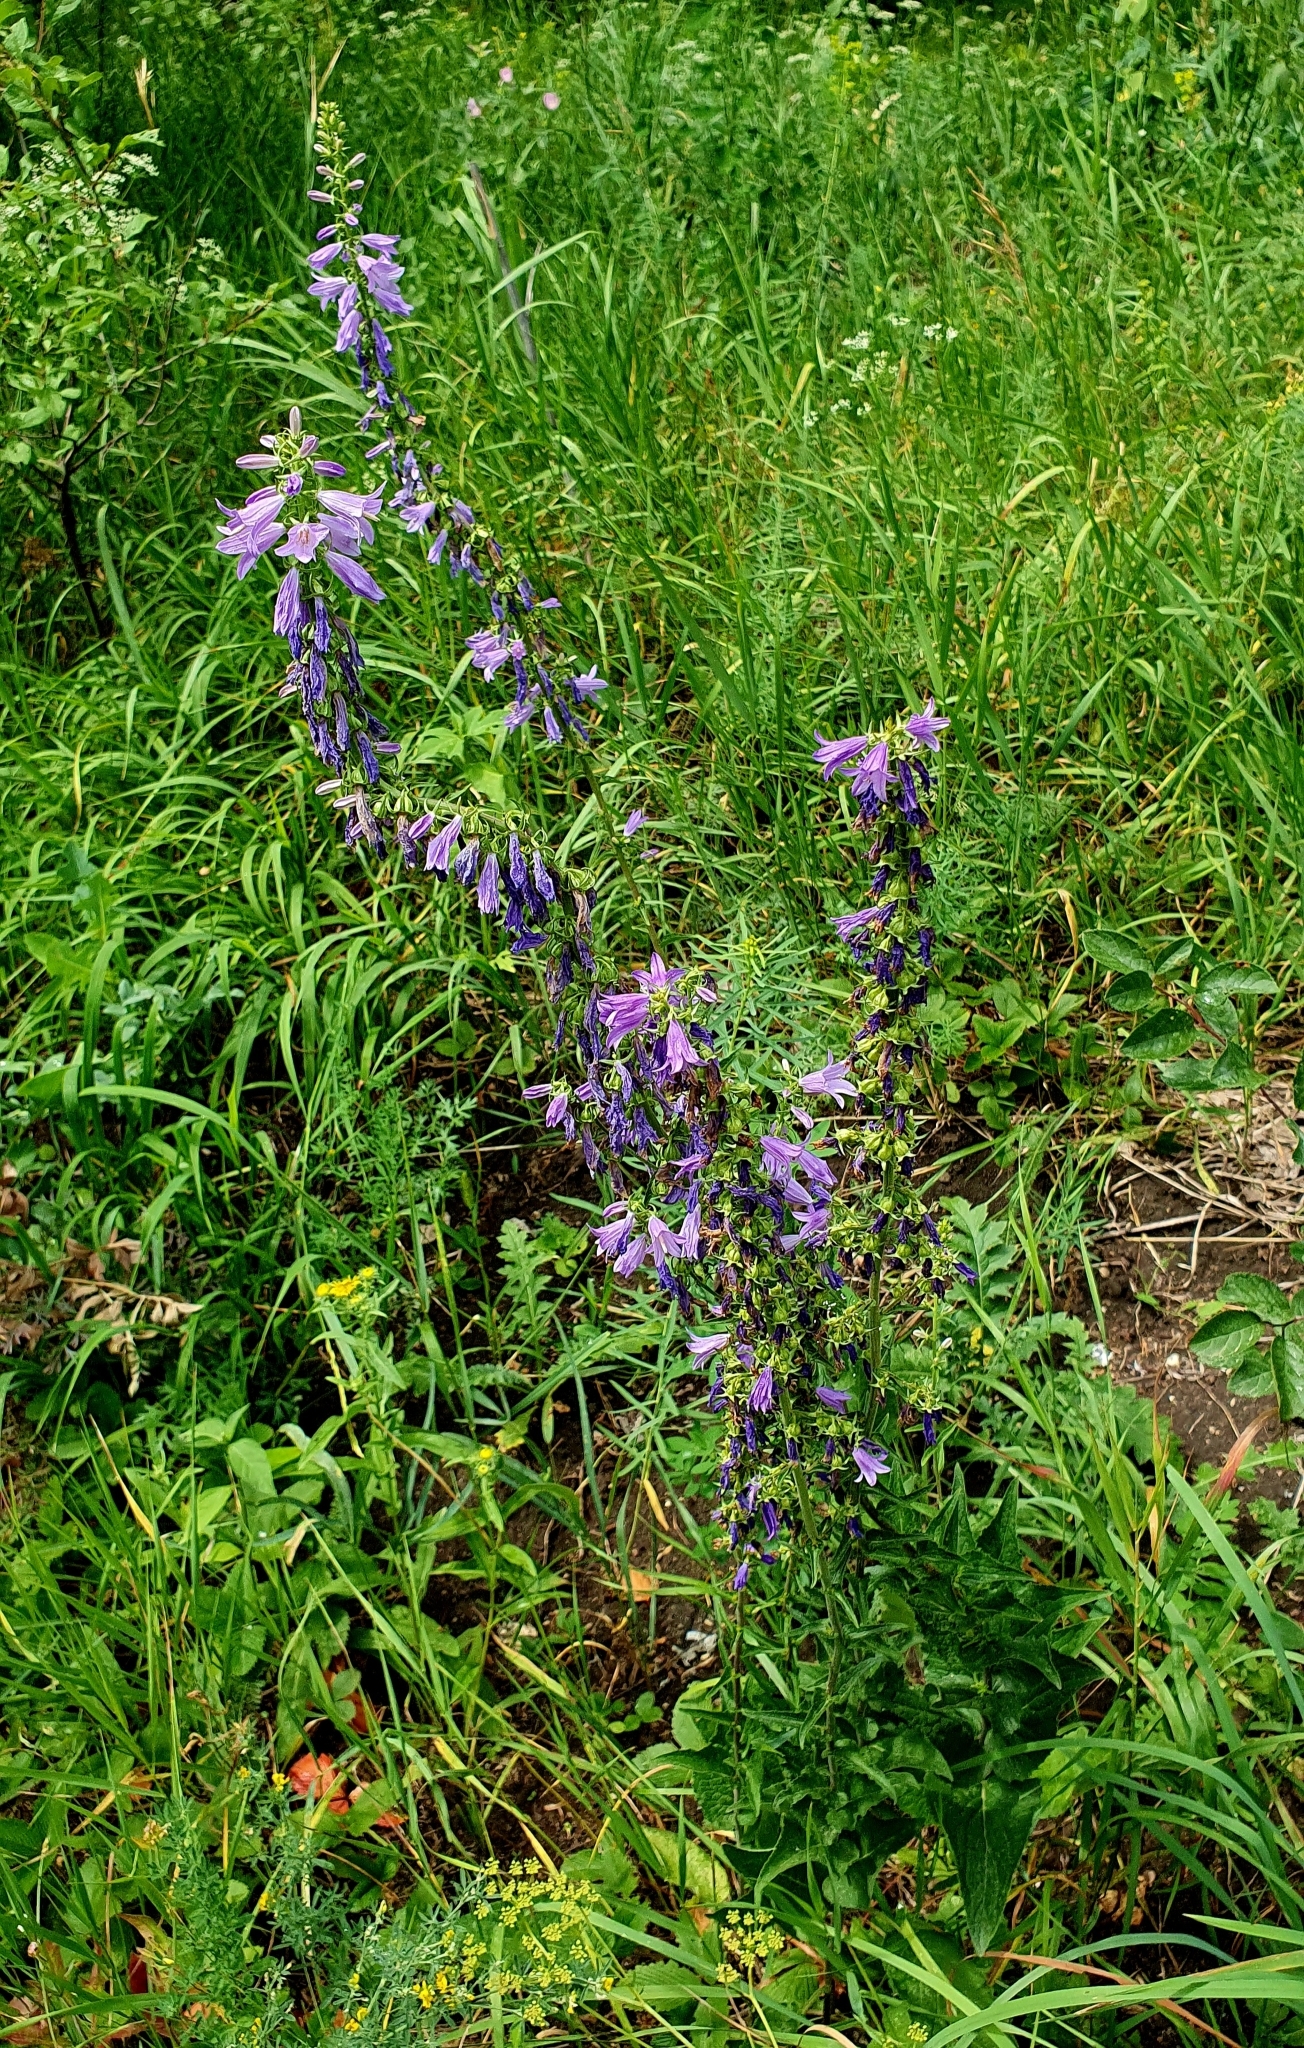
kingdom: Plantae
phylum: Tracheophyta
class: Magnoliopsida
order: Asterales
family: Campanulaceae
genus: Campanula
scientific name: Campanula rapunculoides
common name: Creeping bellflower
